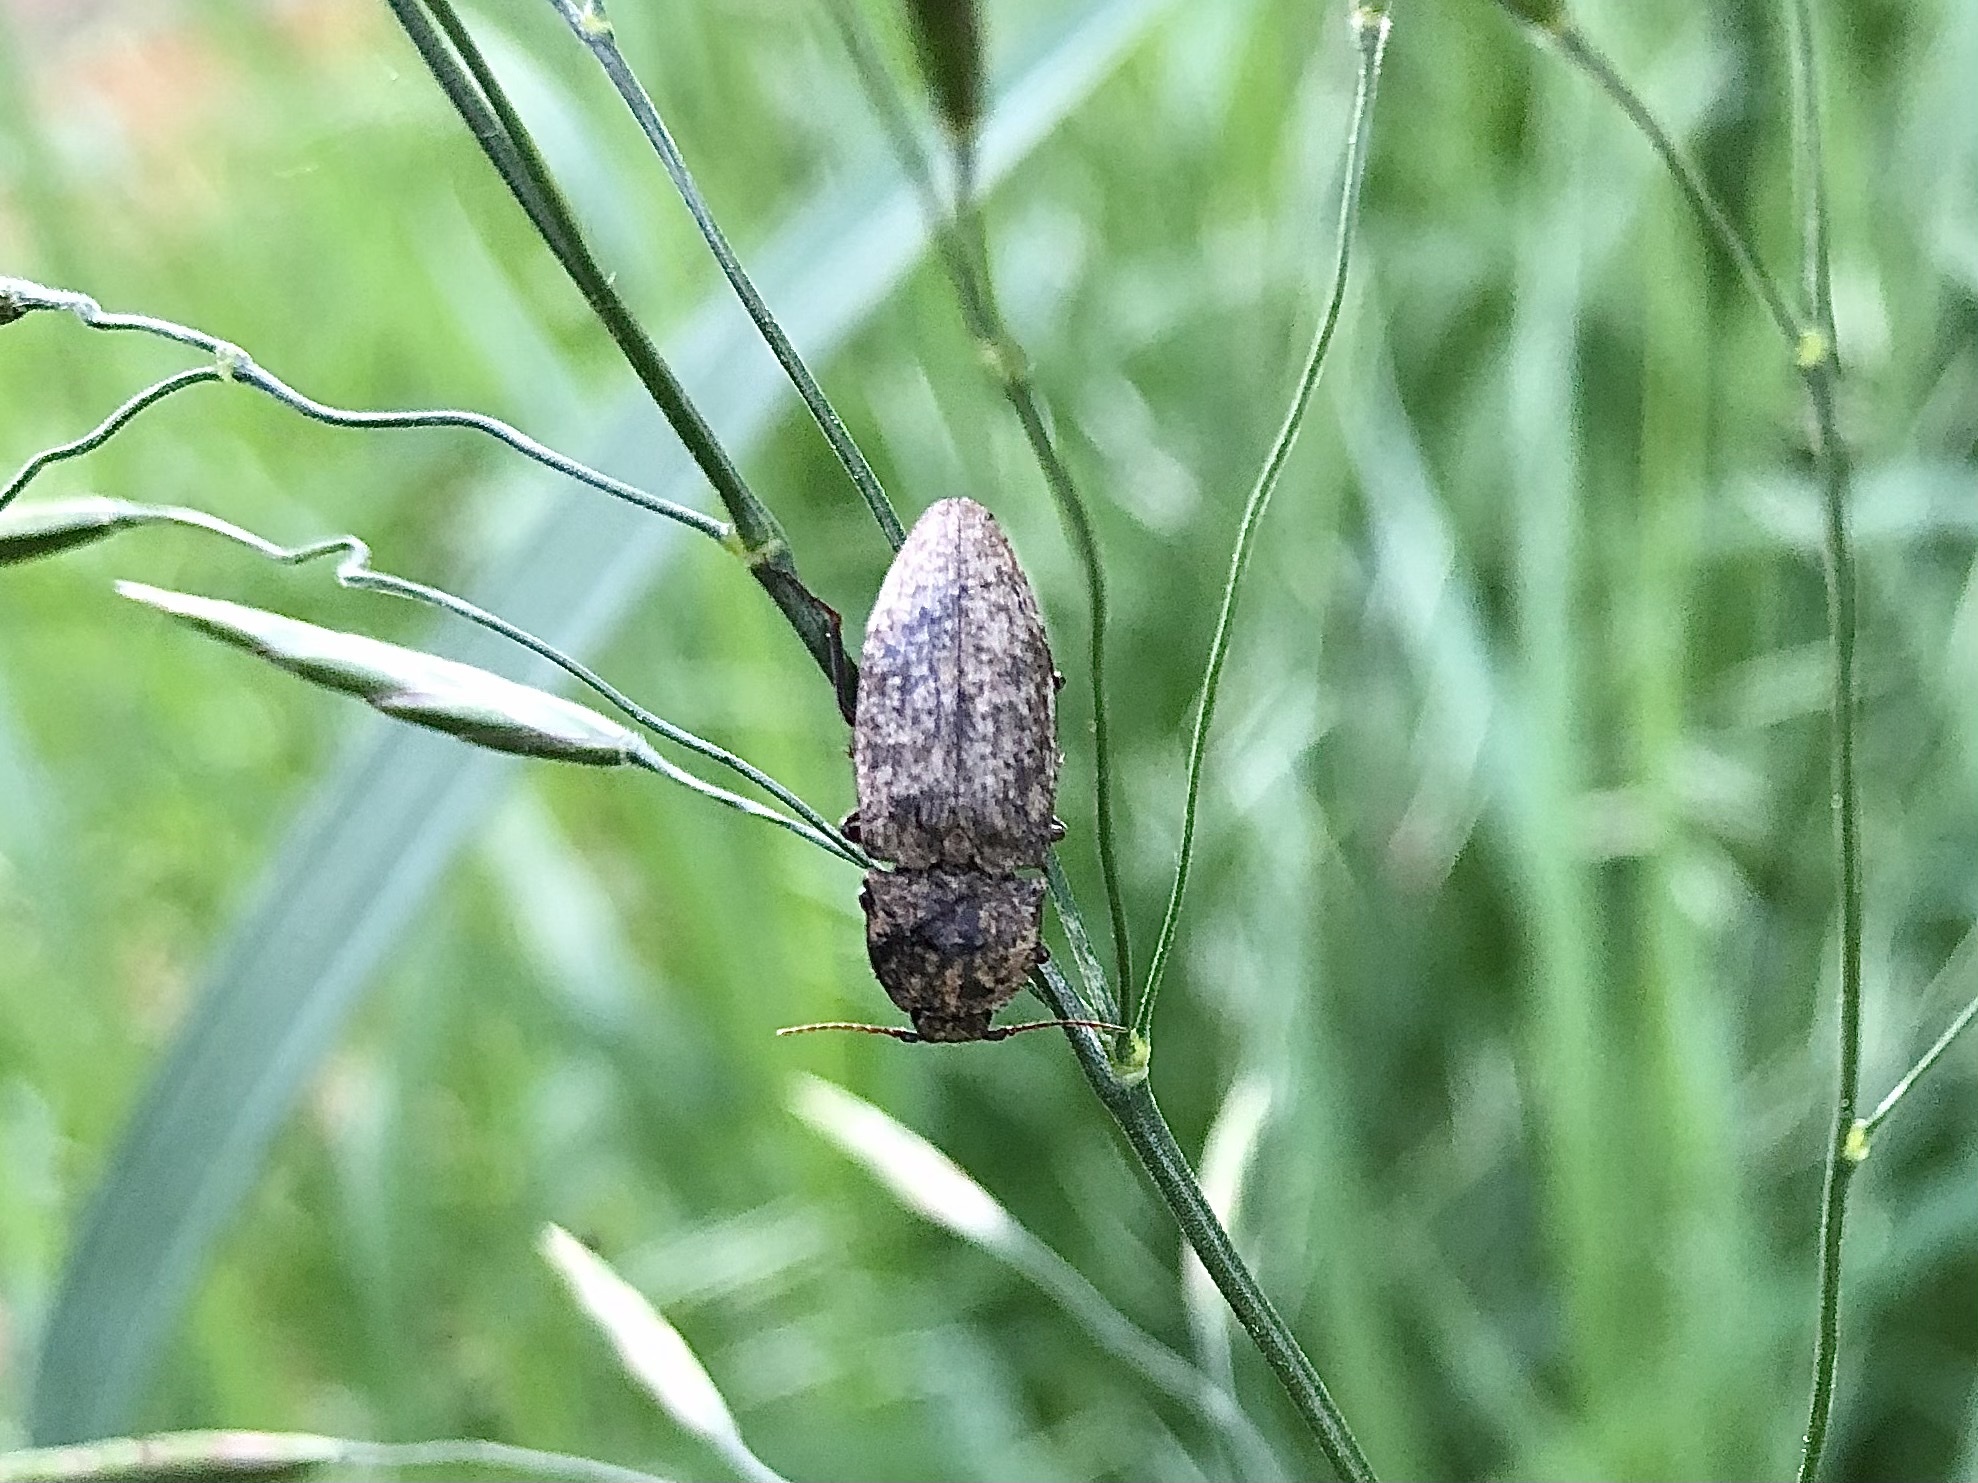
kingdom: Animalia
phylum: Arthropoda
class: Insecta
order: Coleoptera
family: Elateridae
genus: Agrypnus
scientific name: Agrypnus murinus
